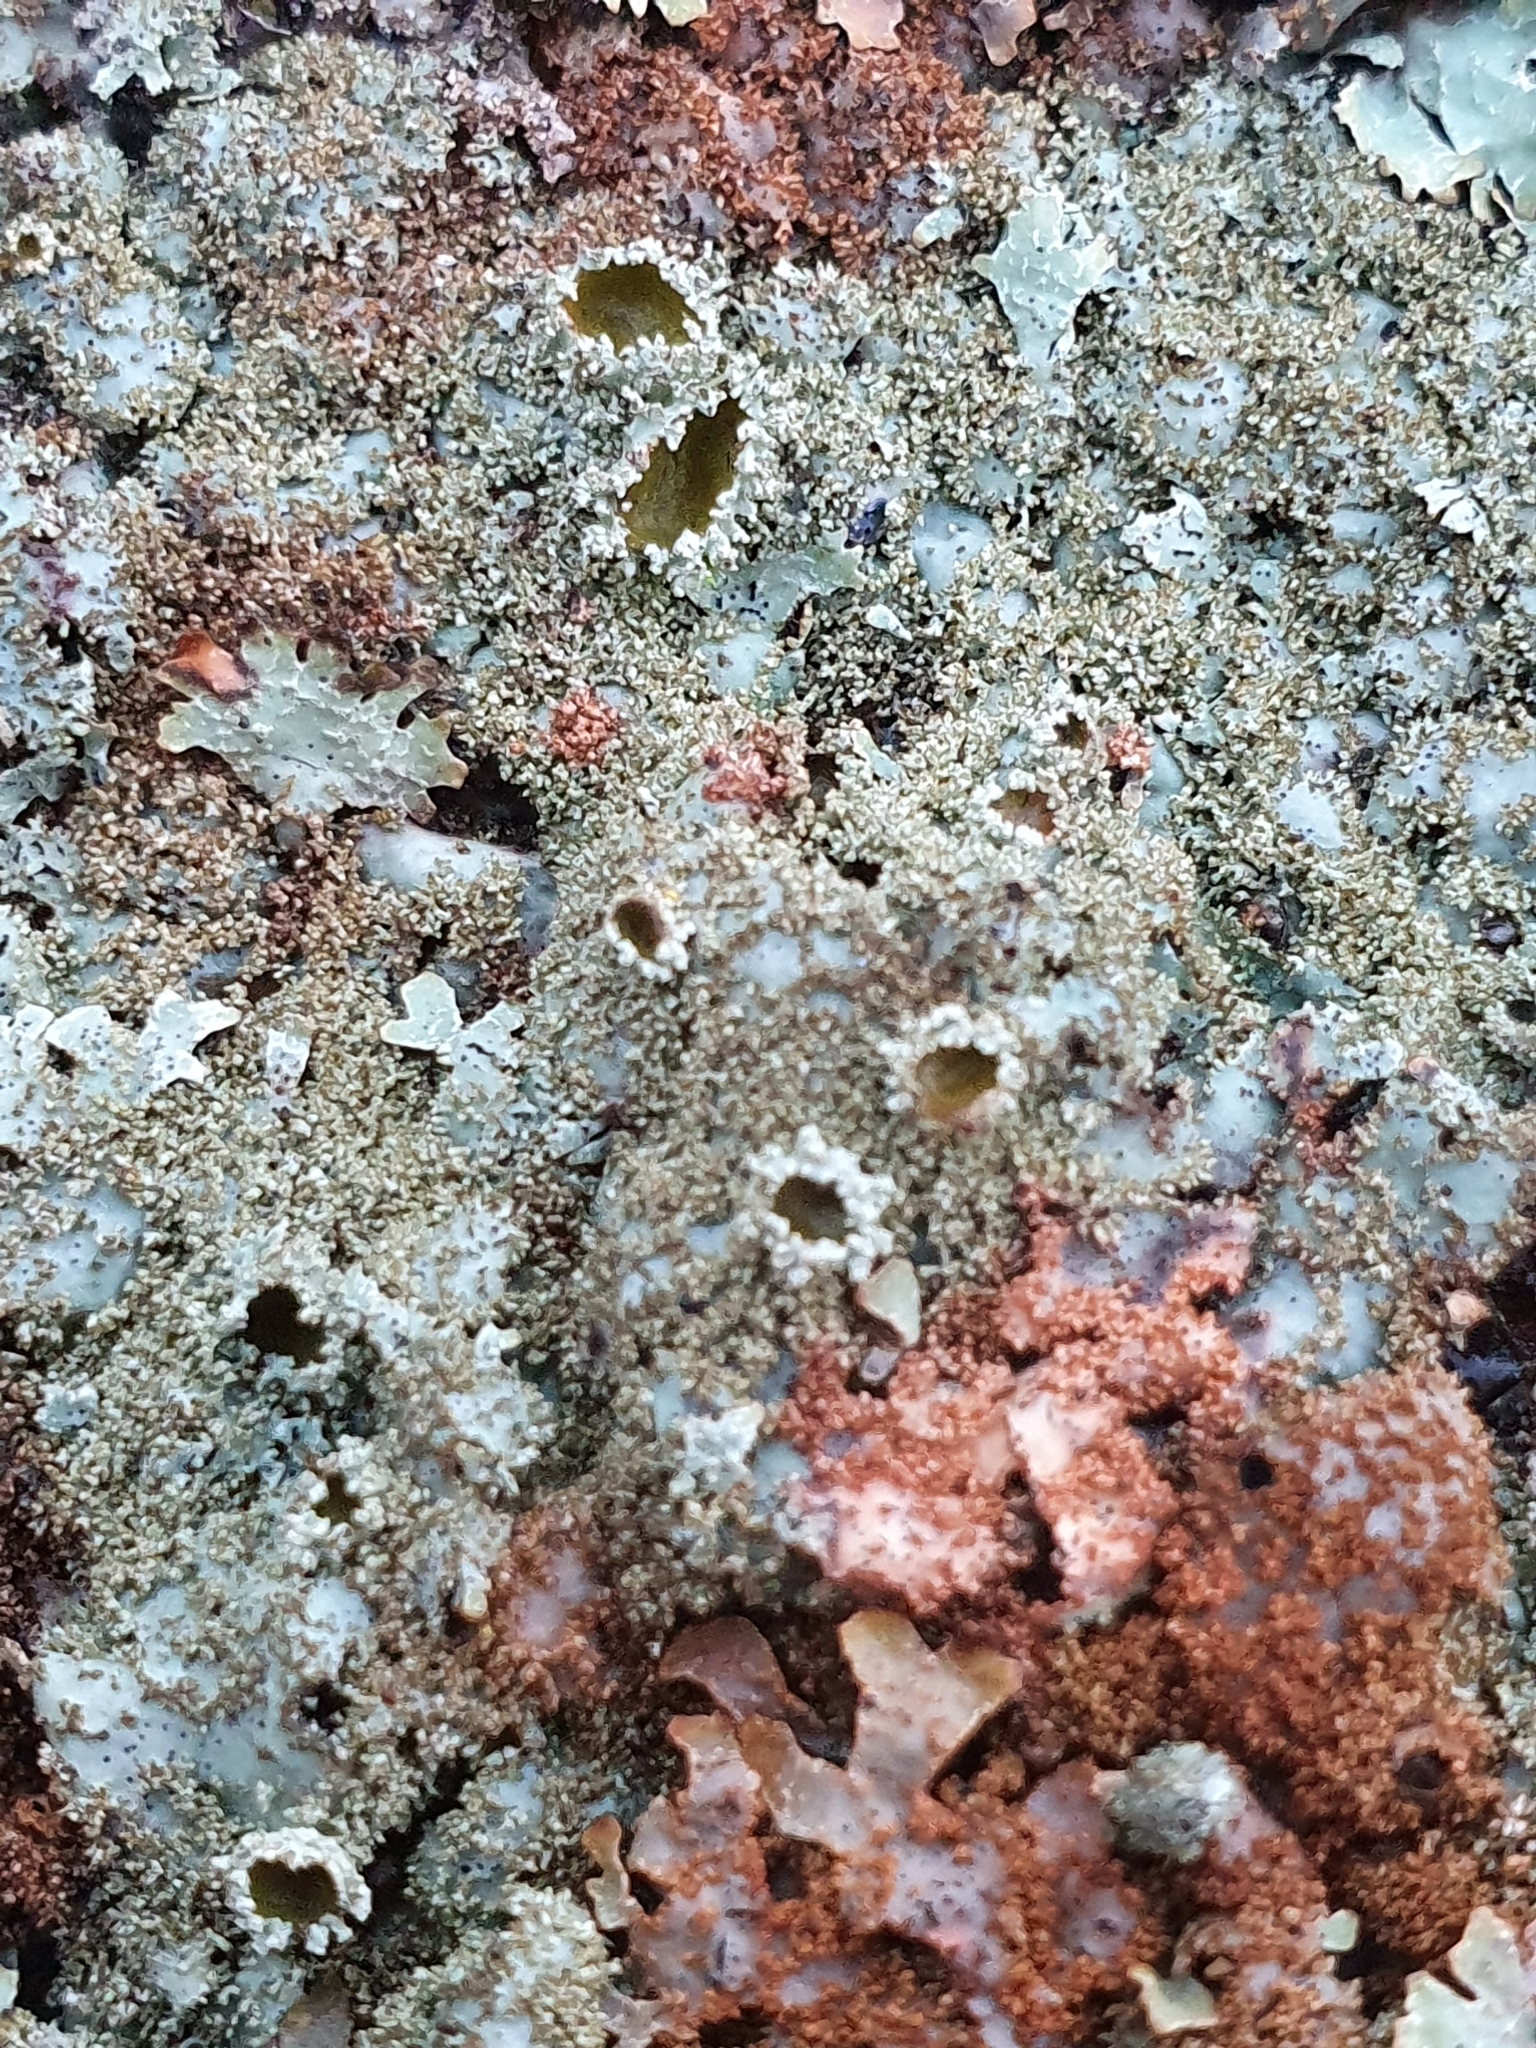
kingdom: Fungi
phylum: Ascomycota
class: Lecanoromycetes
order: Lecanorales
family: Parmeliaceae
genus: Parmelia
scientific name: Parmelia saxatilis
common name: Salted shield lichen
